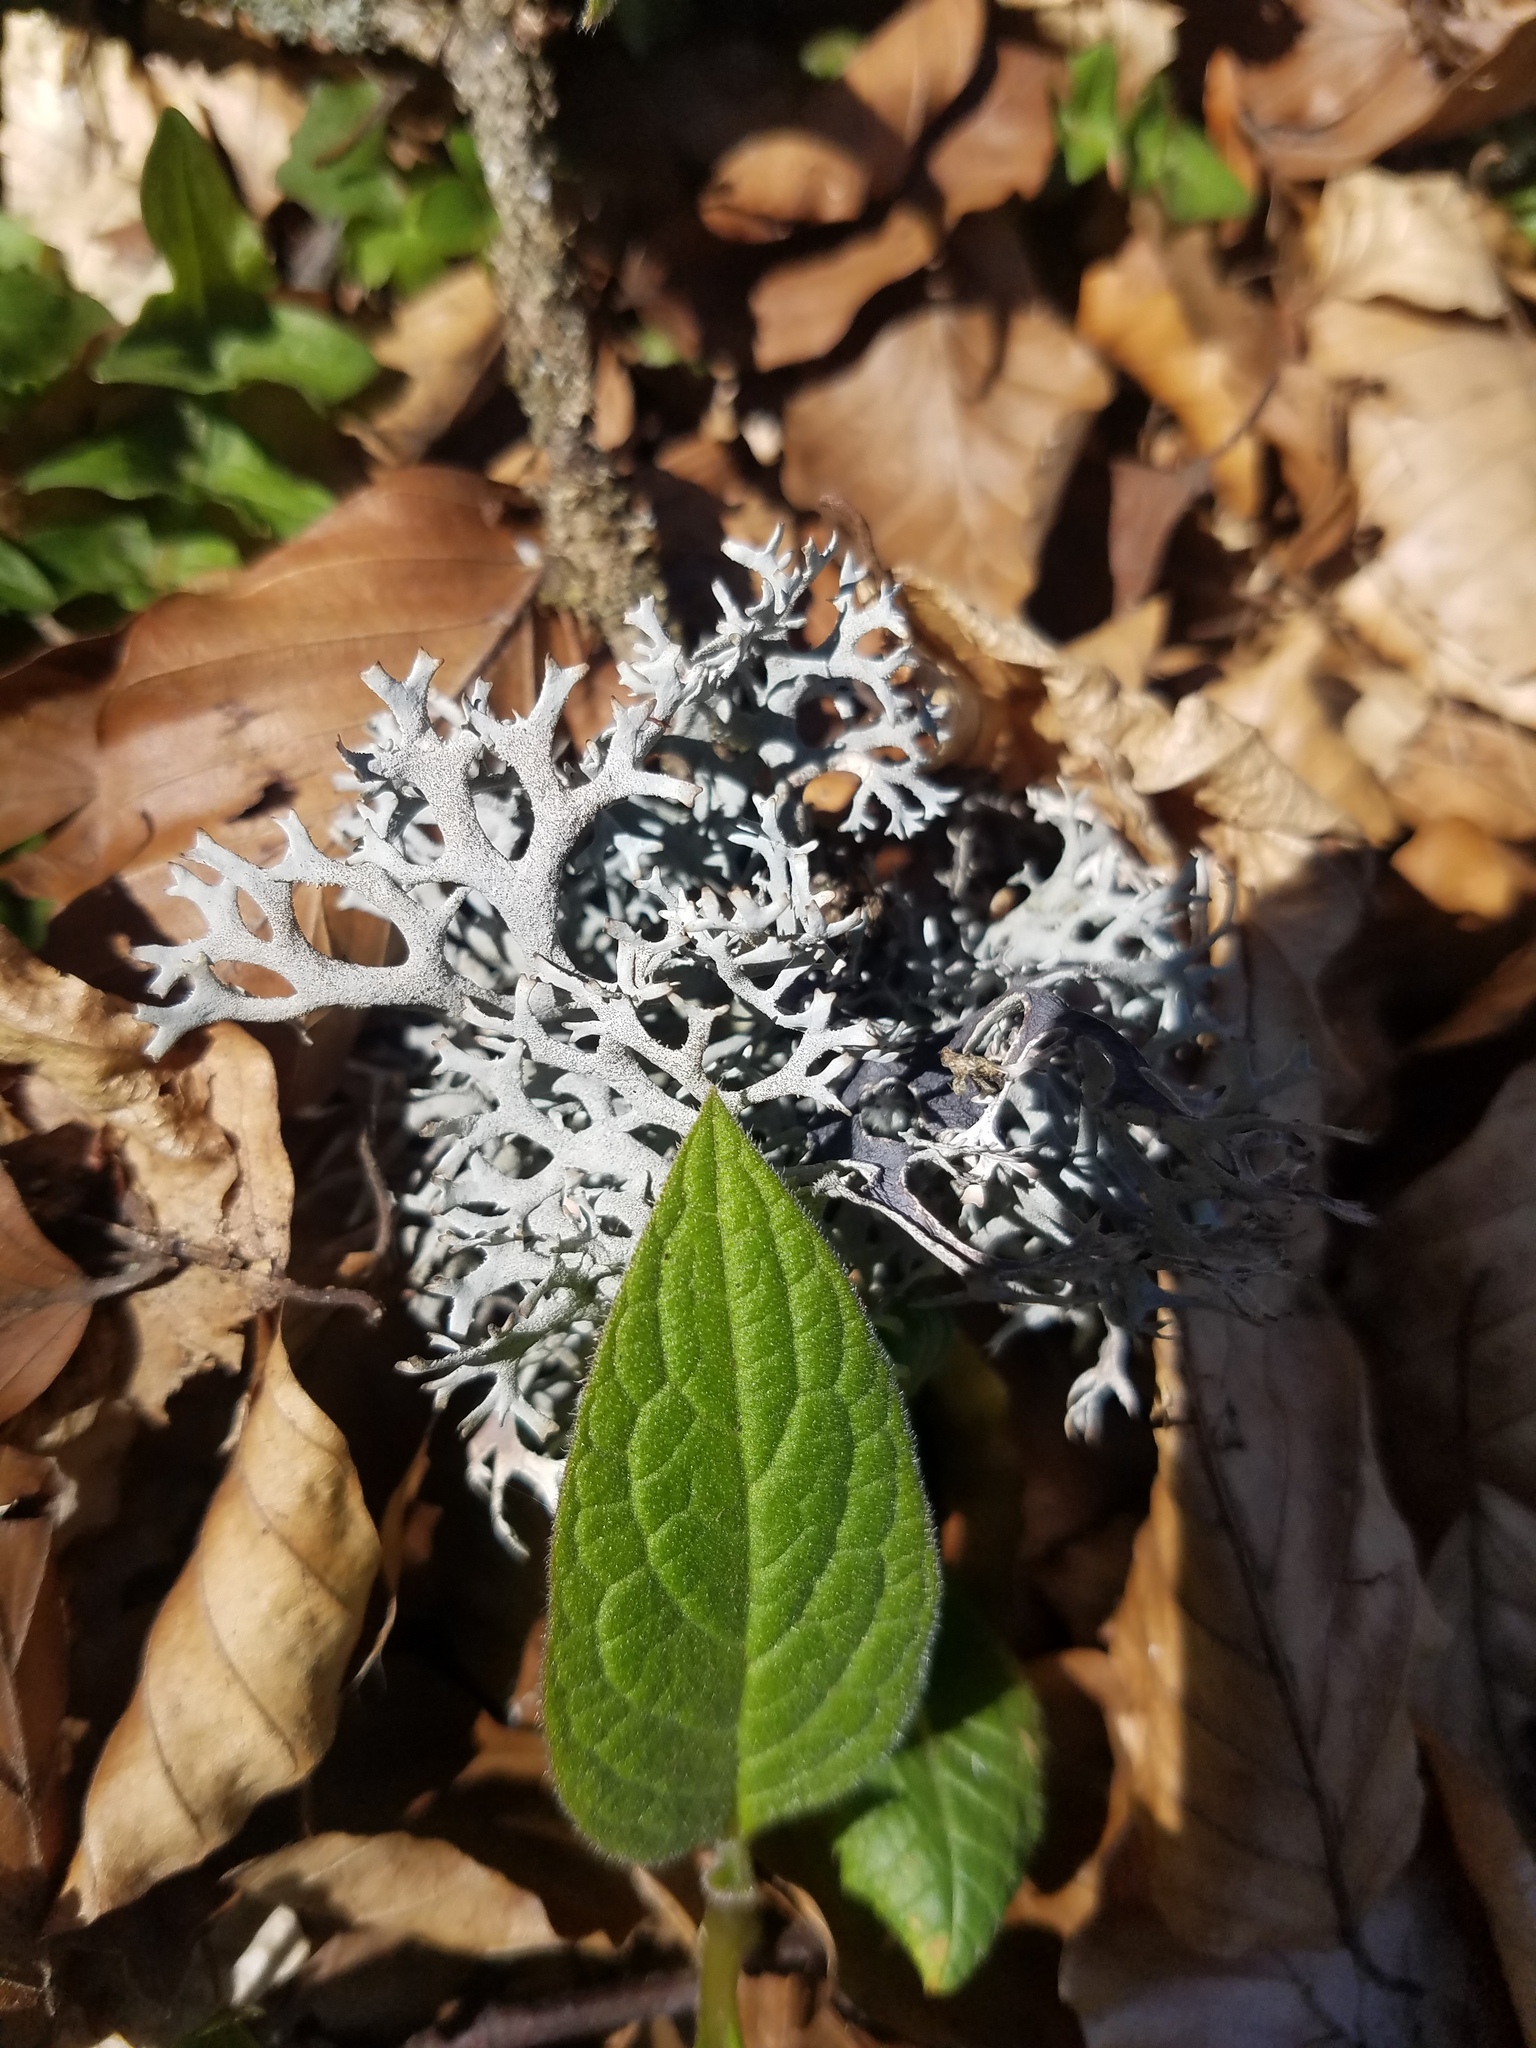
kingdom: Fungi
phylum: Ascomycota
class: Lecanoromycetes
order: Lecanorales
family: Parmeliaceae
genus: Pseudevernia
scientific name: Pseudevernia furfuracea
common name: Tree moss
